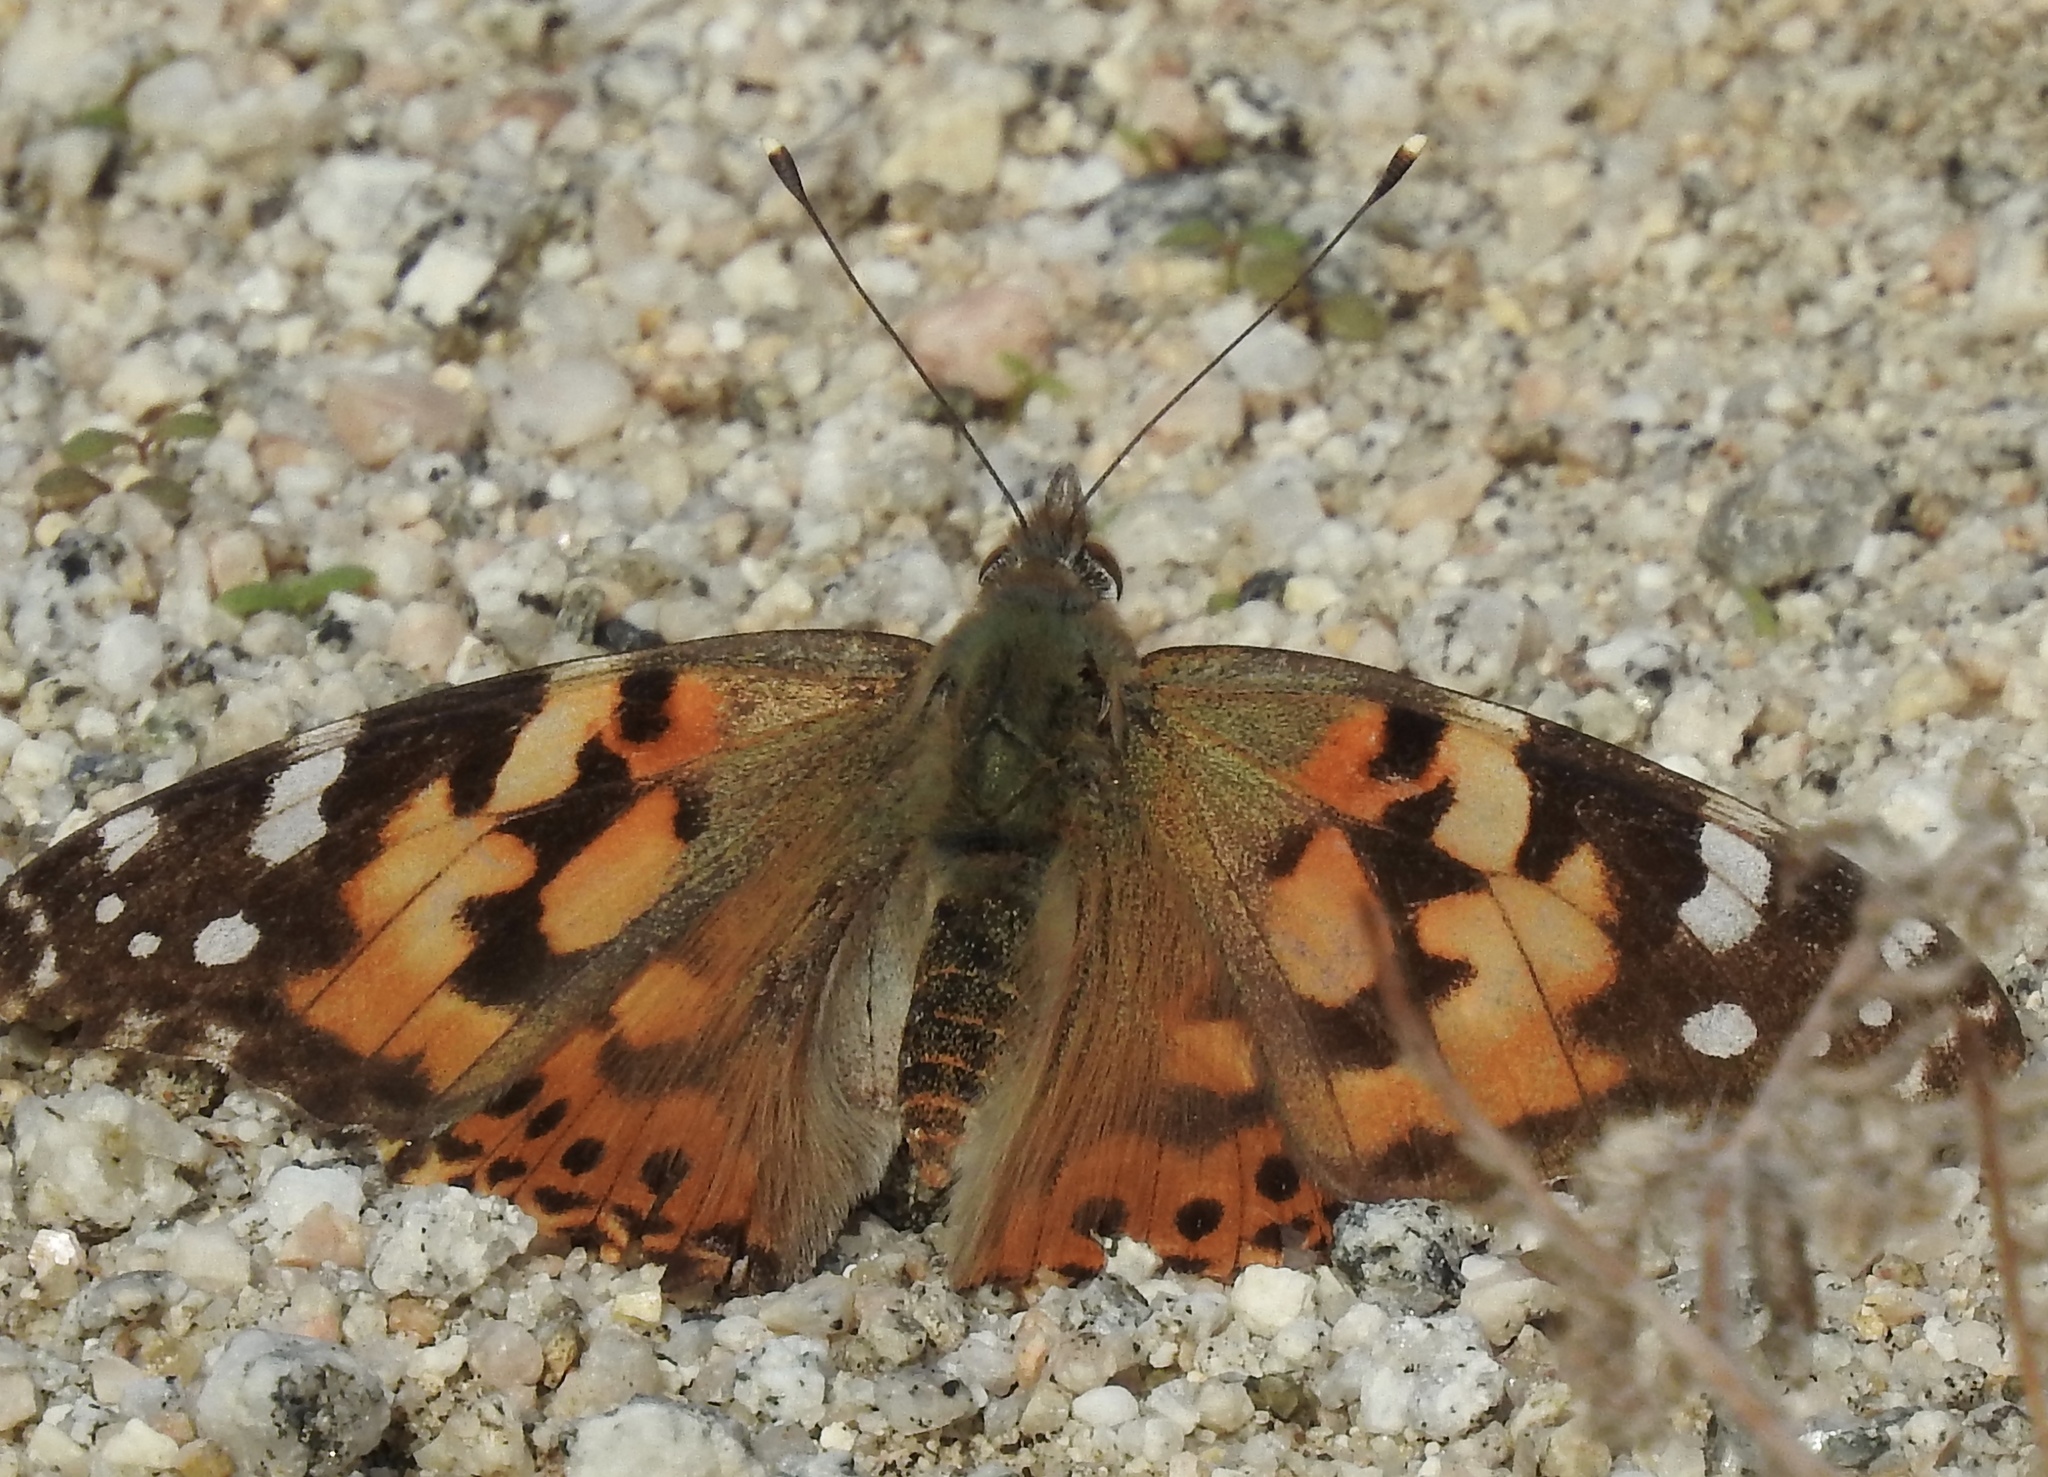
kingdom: Animalia
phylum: Arthropoda
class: Insecta
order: Lepidoptera
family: Nymphalidae
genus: Vanessa
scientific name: Vanessa cardui
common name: Painted lady
